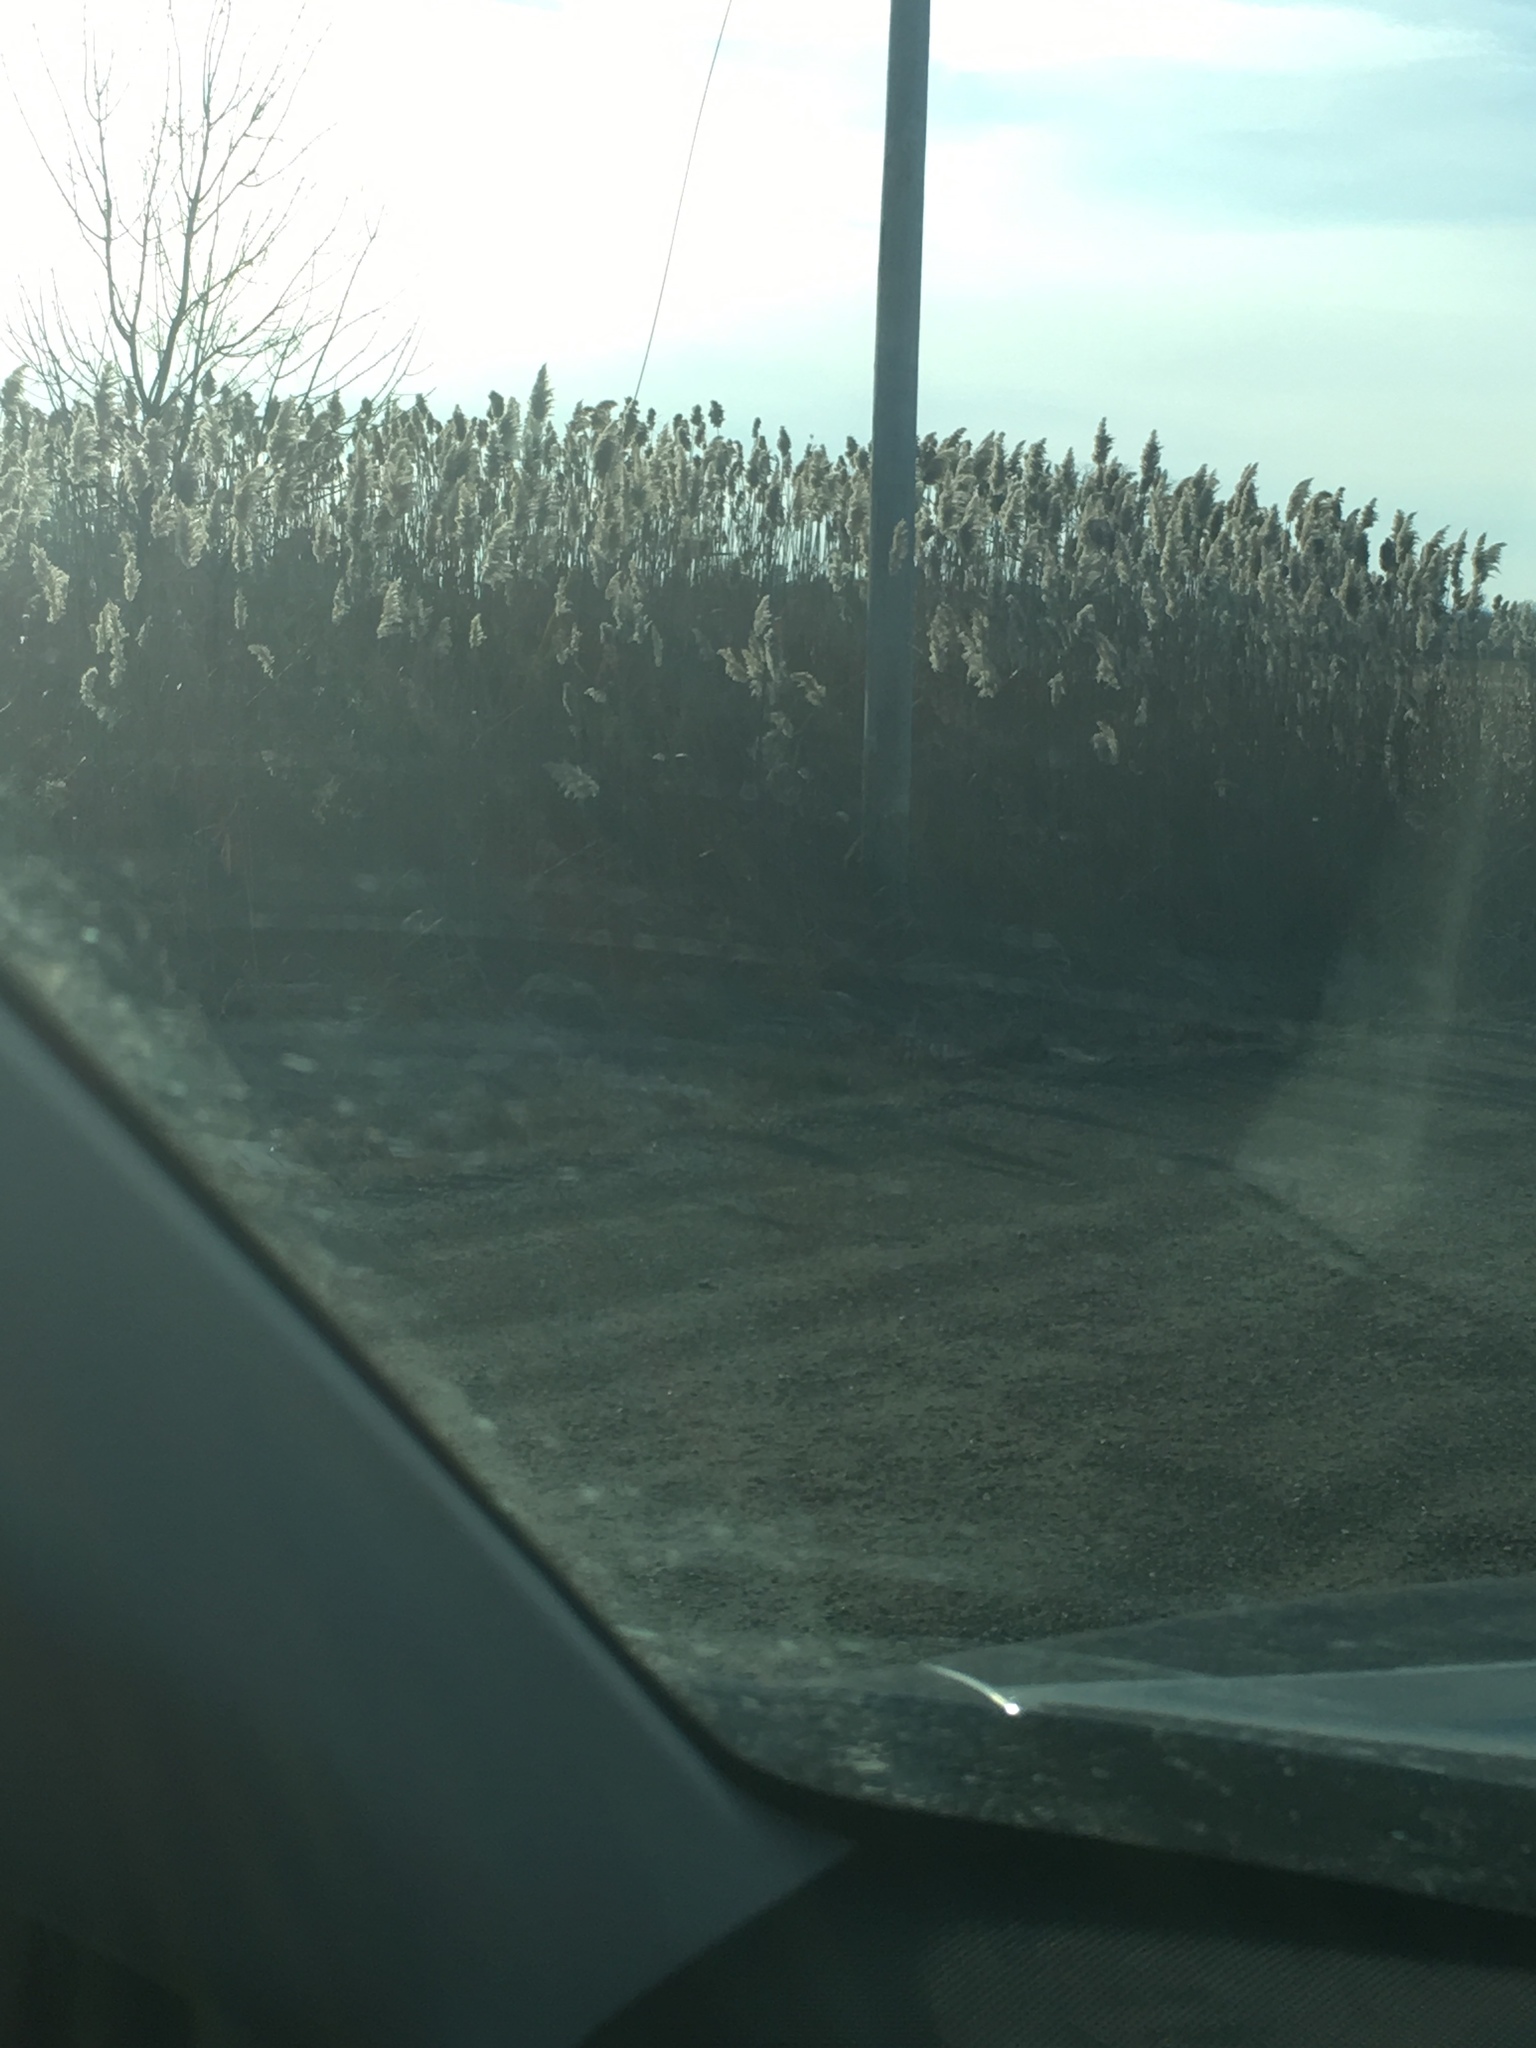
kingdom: Plantae
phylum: Tracheophyta
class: Liliopsida
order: Poales
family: Poaceae
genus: Phragmites
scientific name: Phragmites australis
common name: Common reed
